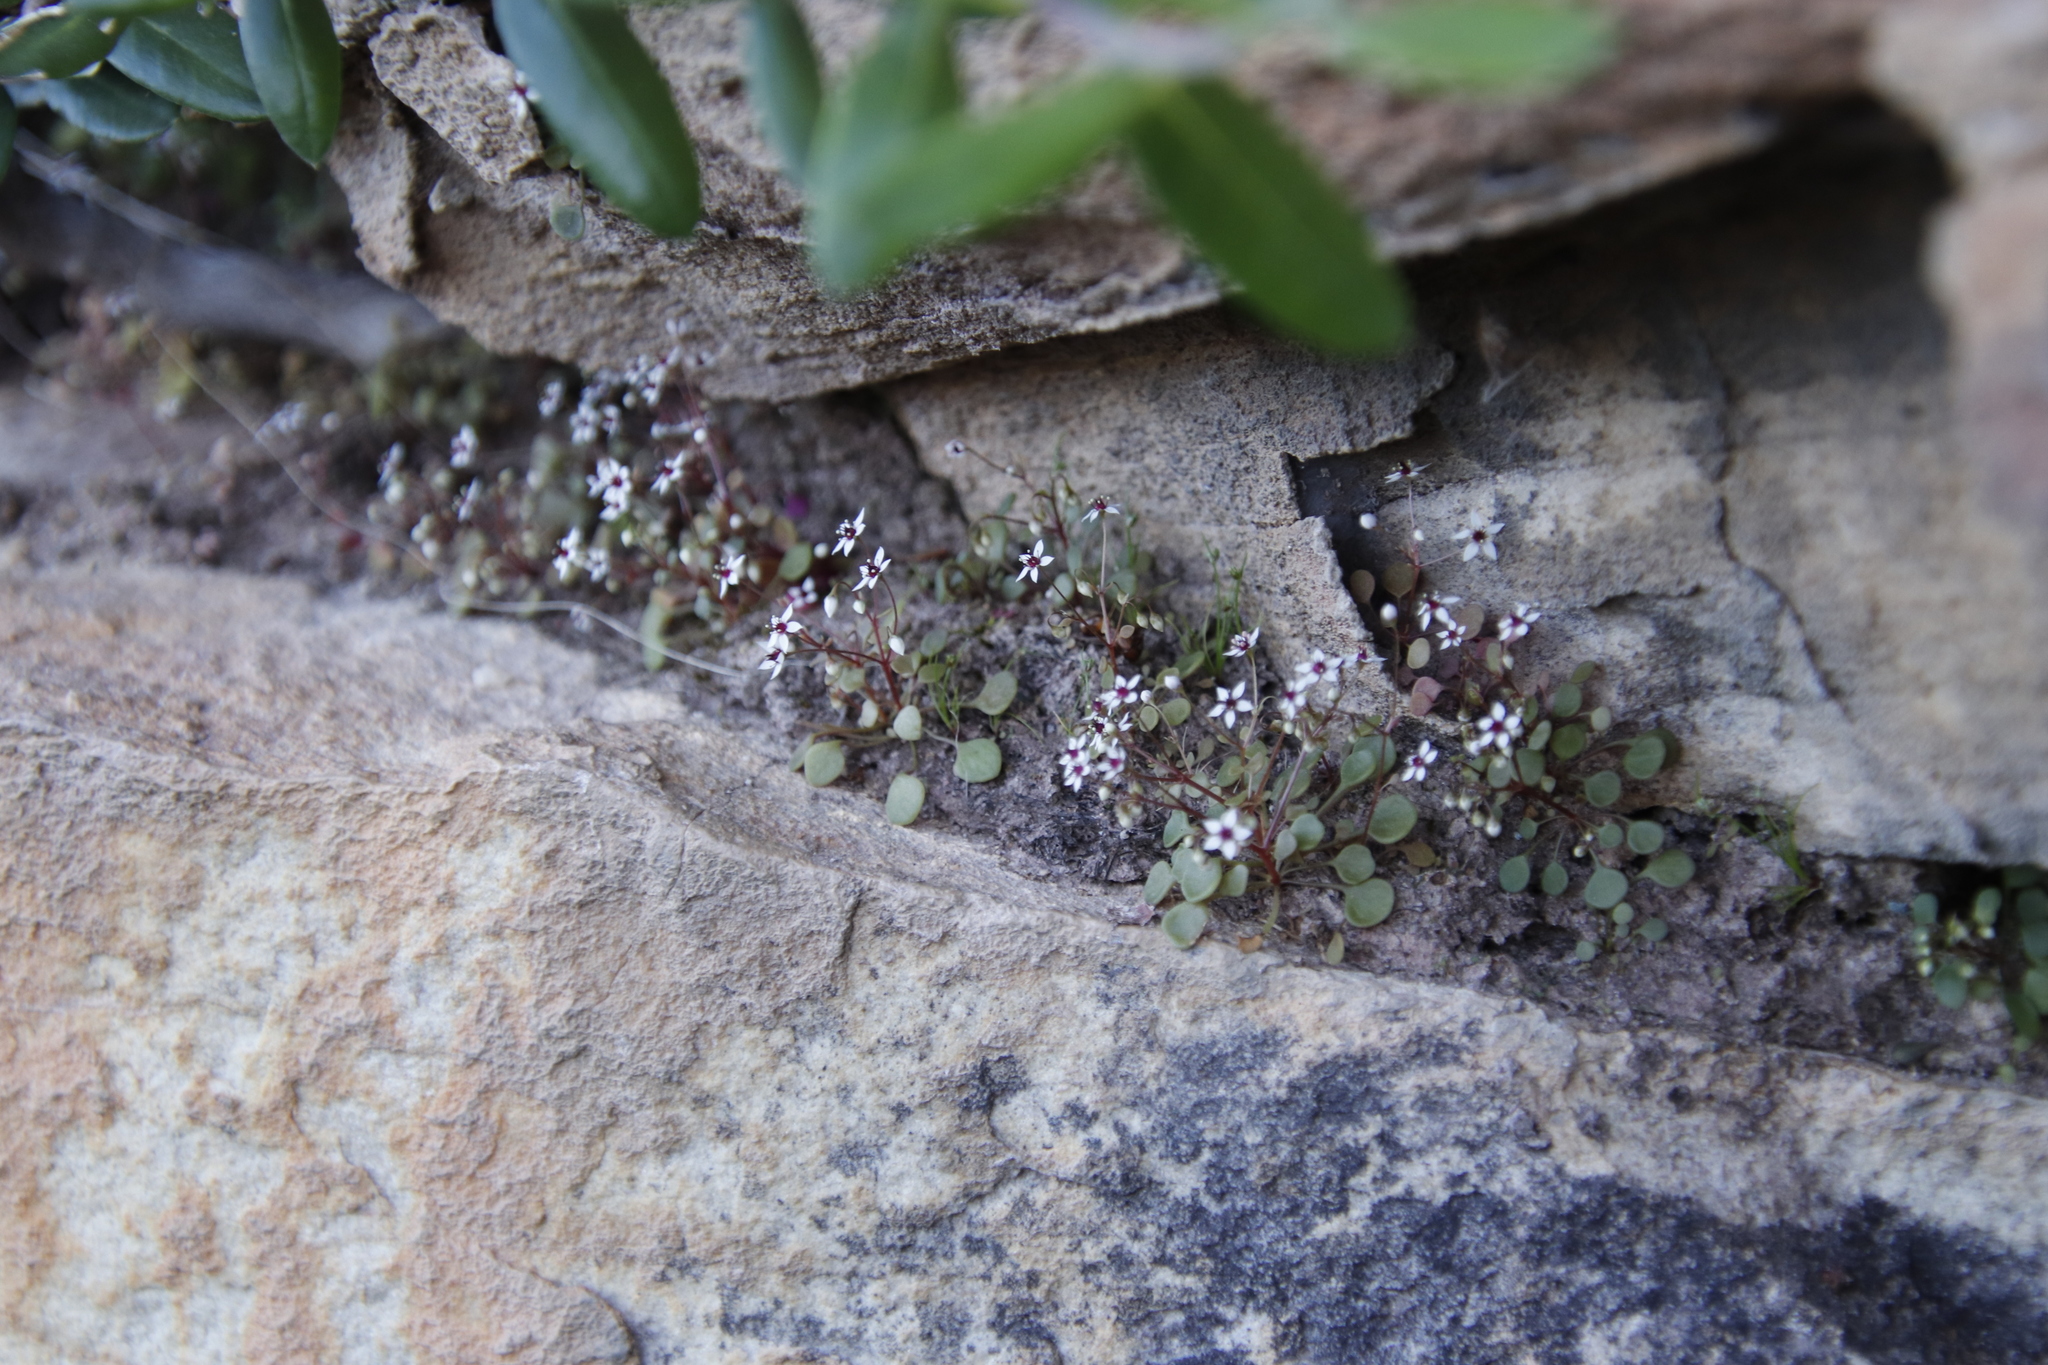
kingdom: Plantae
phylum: Tracheophyta
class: Magnoliopsida
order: Saxifragales
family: Crassulaceae
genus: Crassula
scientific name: Crassula dentata
